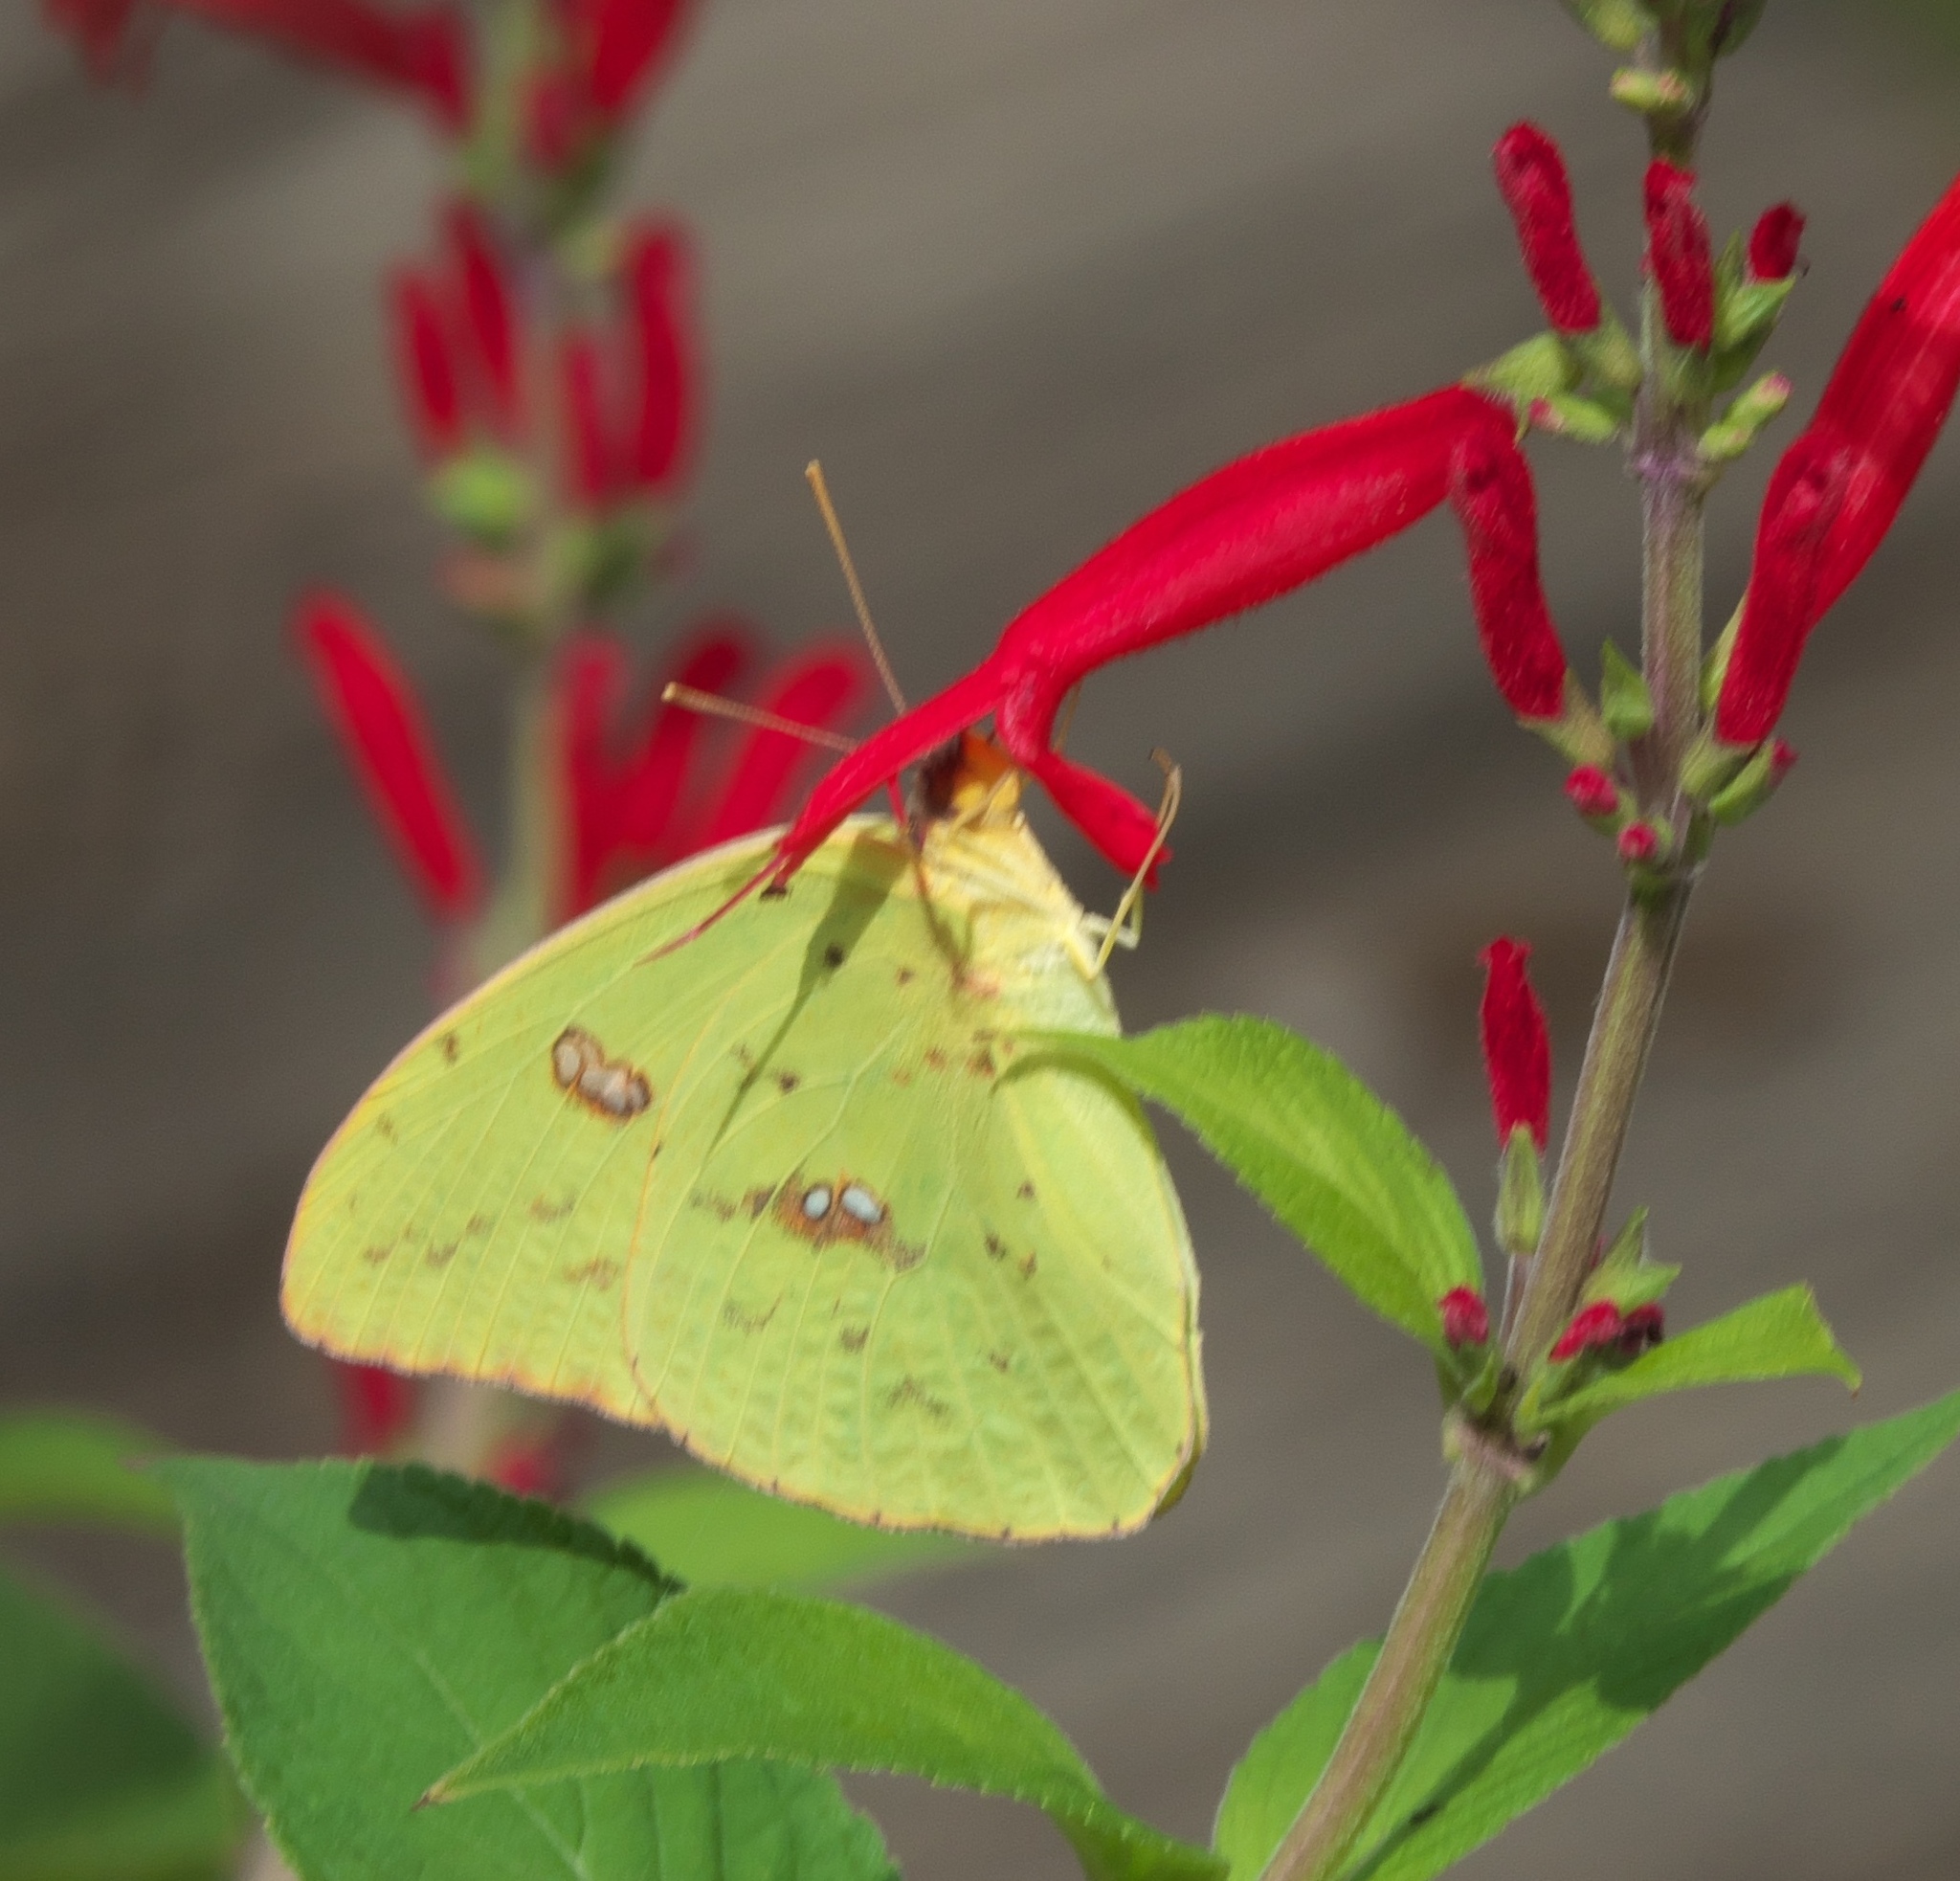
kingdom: Animalia
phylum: Arthropoda
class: Insecta
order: Lepidoptera
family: Pieridae
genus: Phoebis
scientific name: Phoebis sennae
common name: Cloudless sulphur
